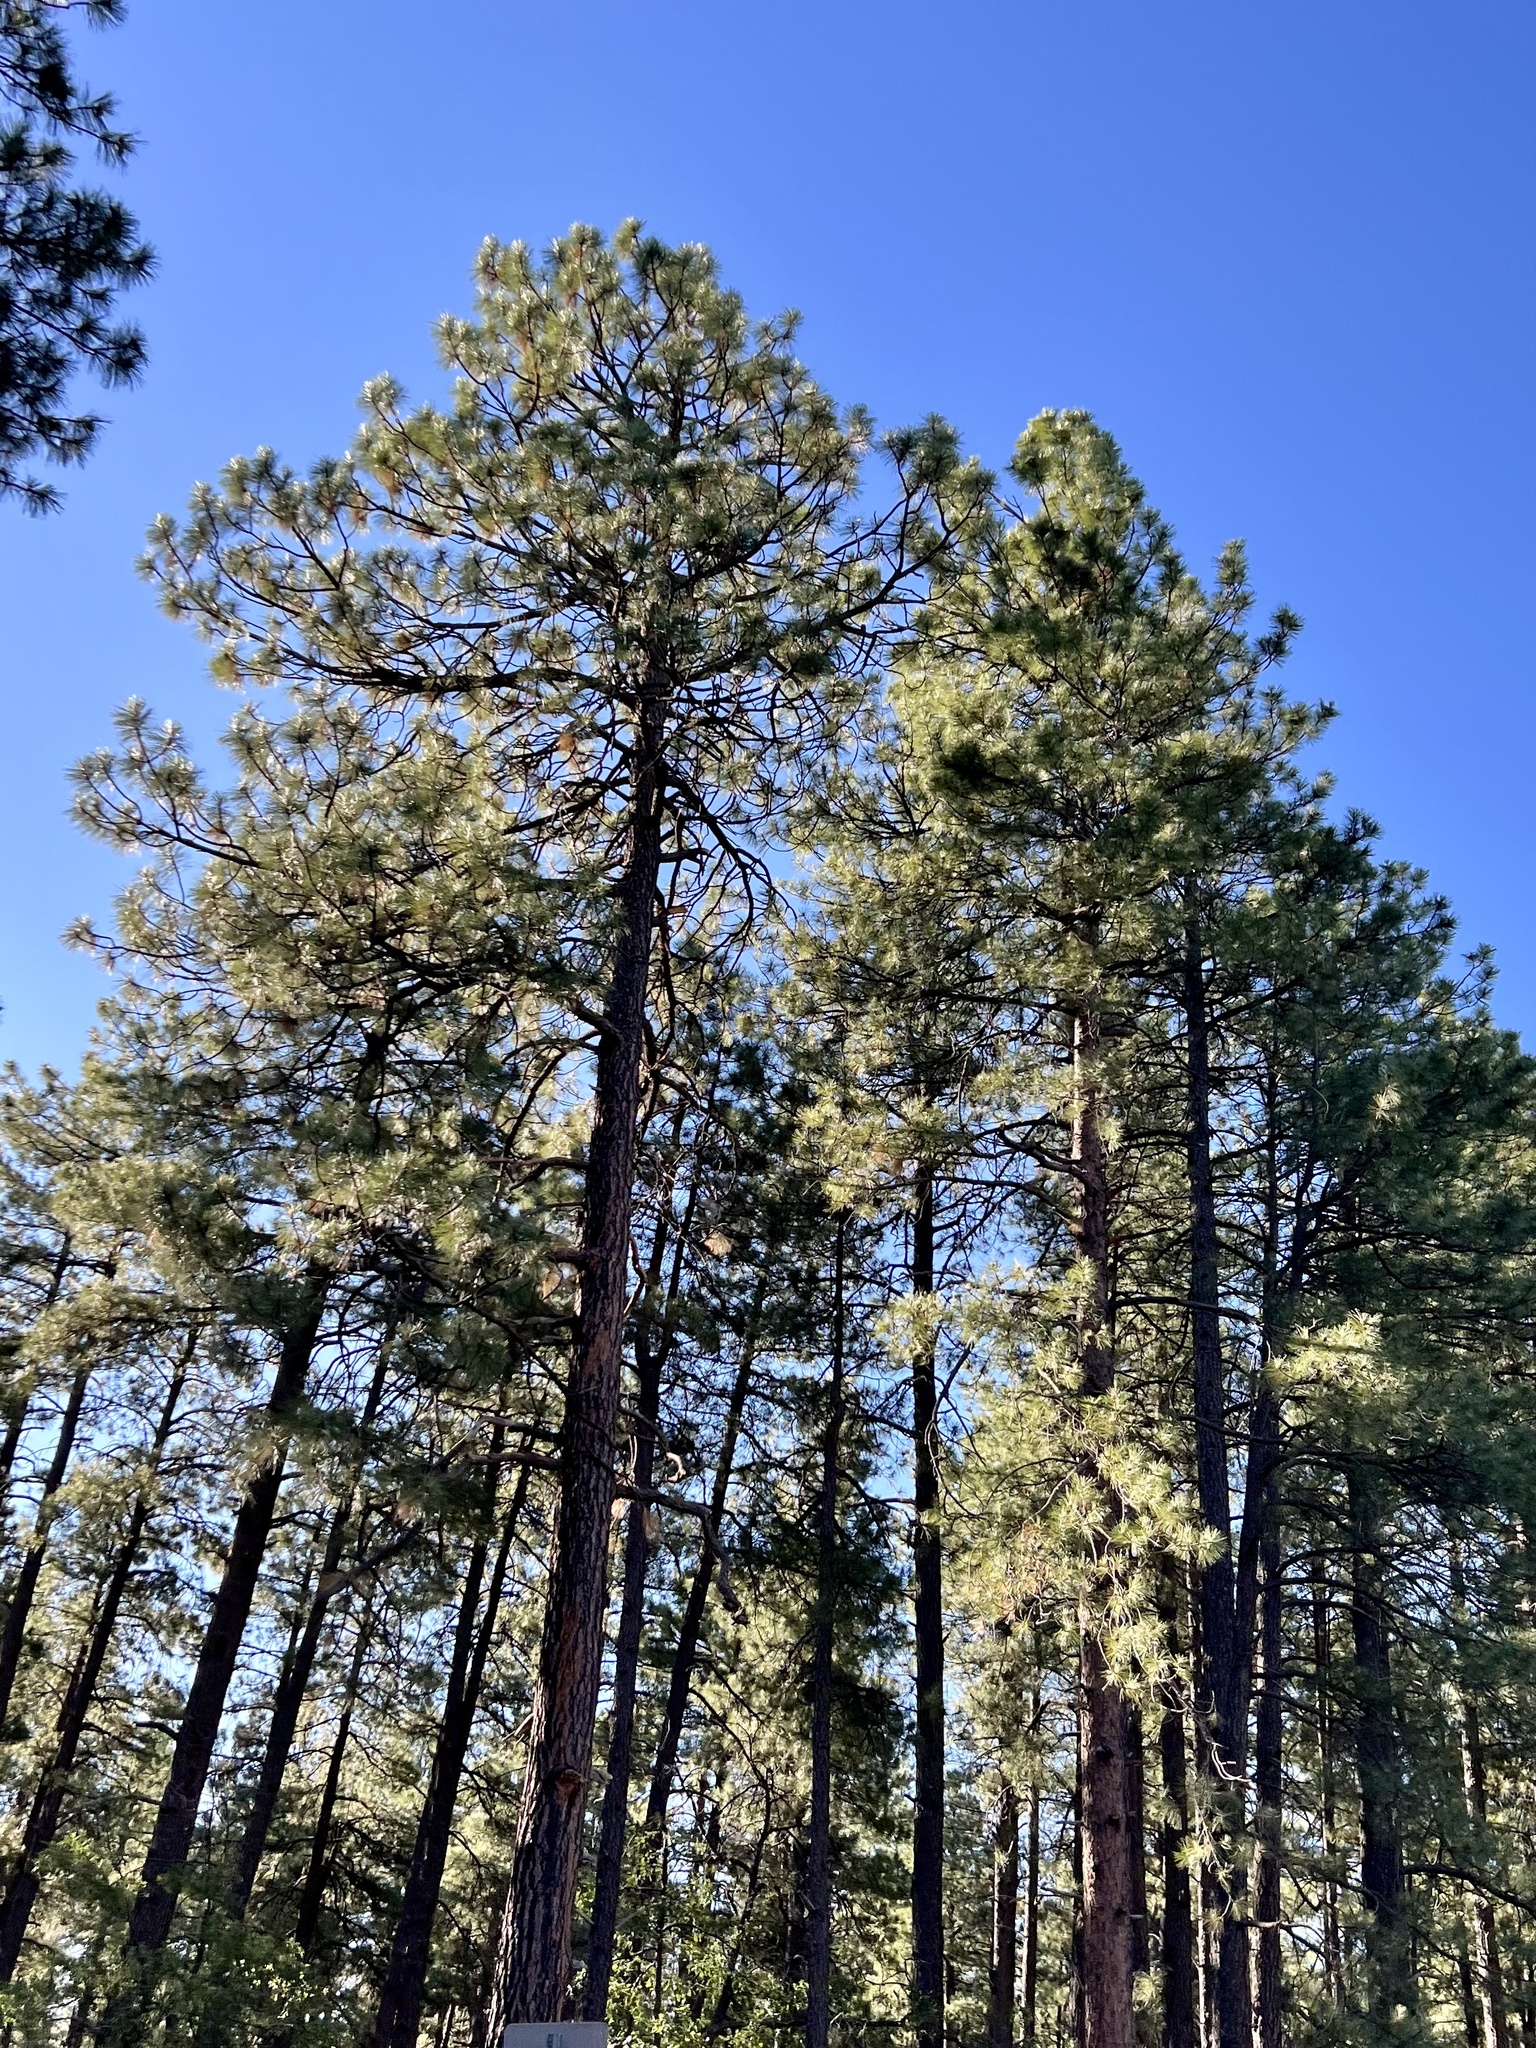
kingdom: Plantae
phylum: Tracheophyta
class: Pinopsida
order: Pinales
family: Pinaceae
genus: Pinus
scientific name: Pinus ponderosa
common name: Western yellow-pine
